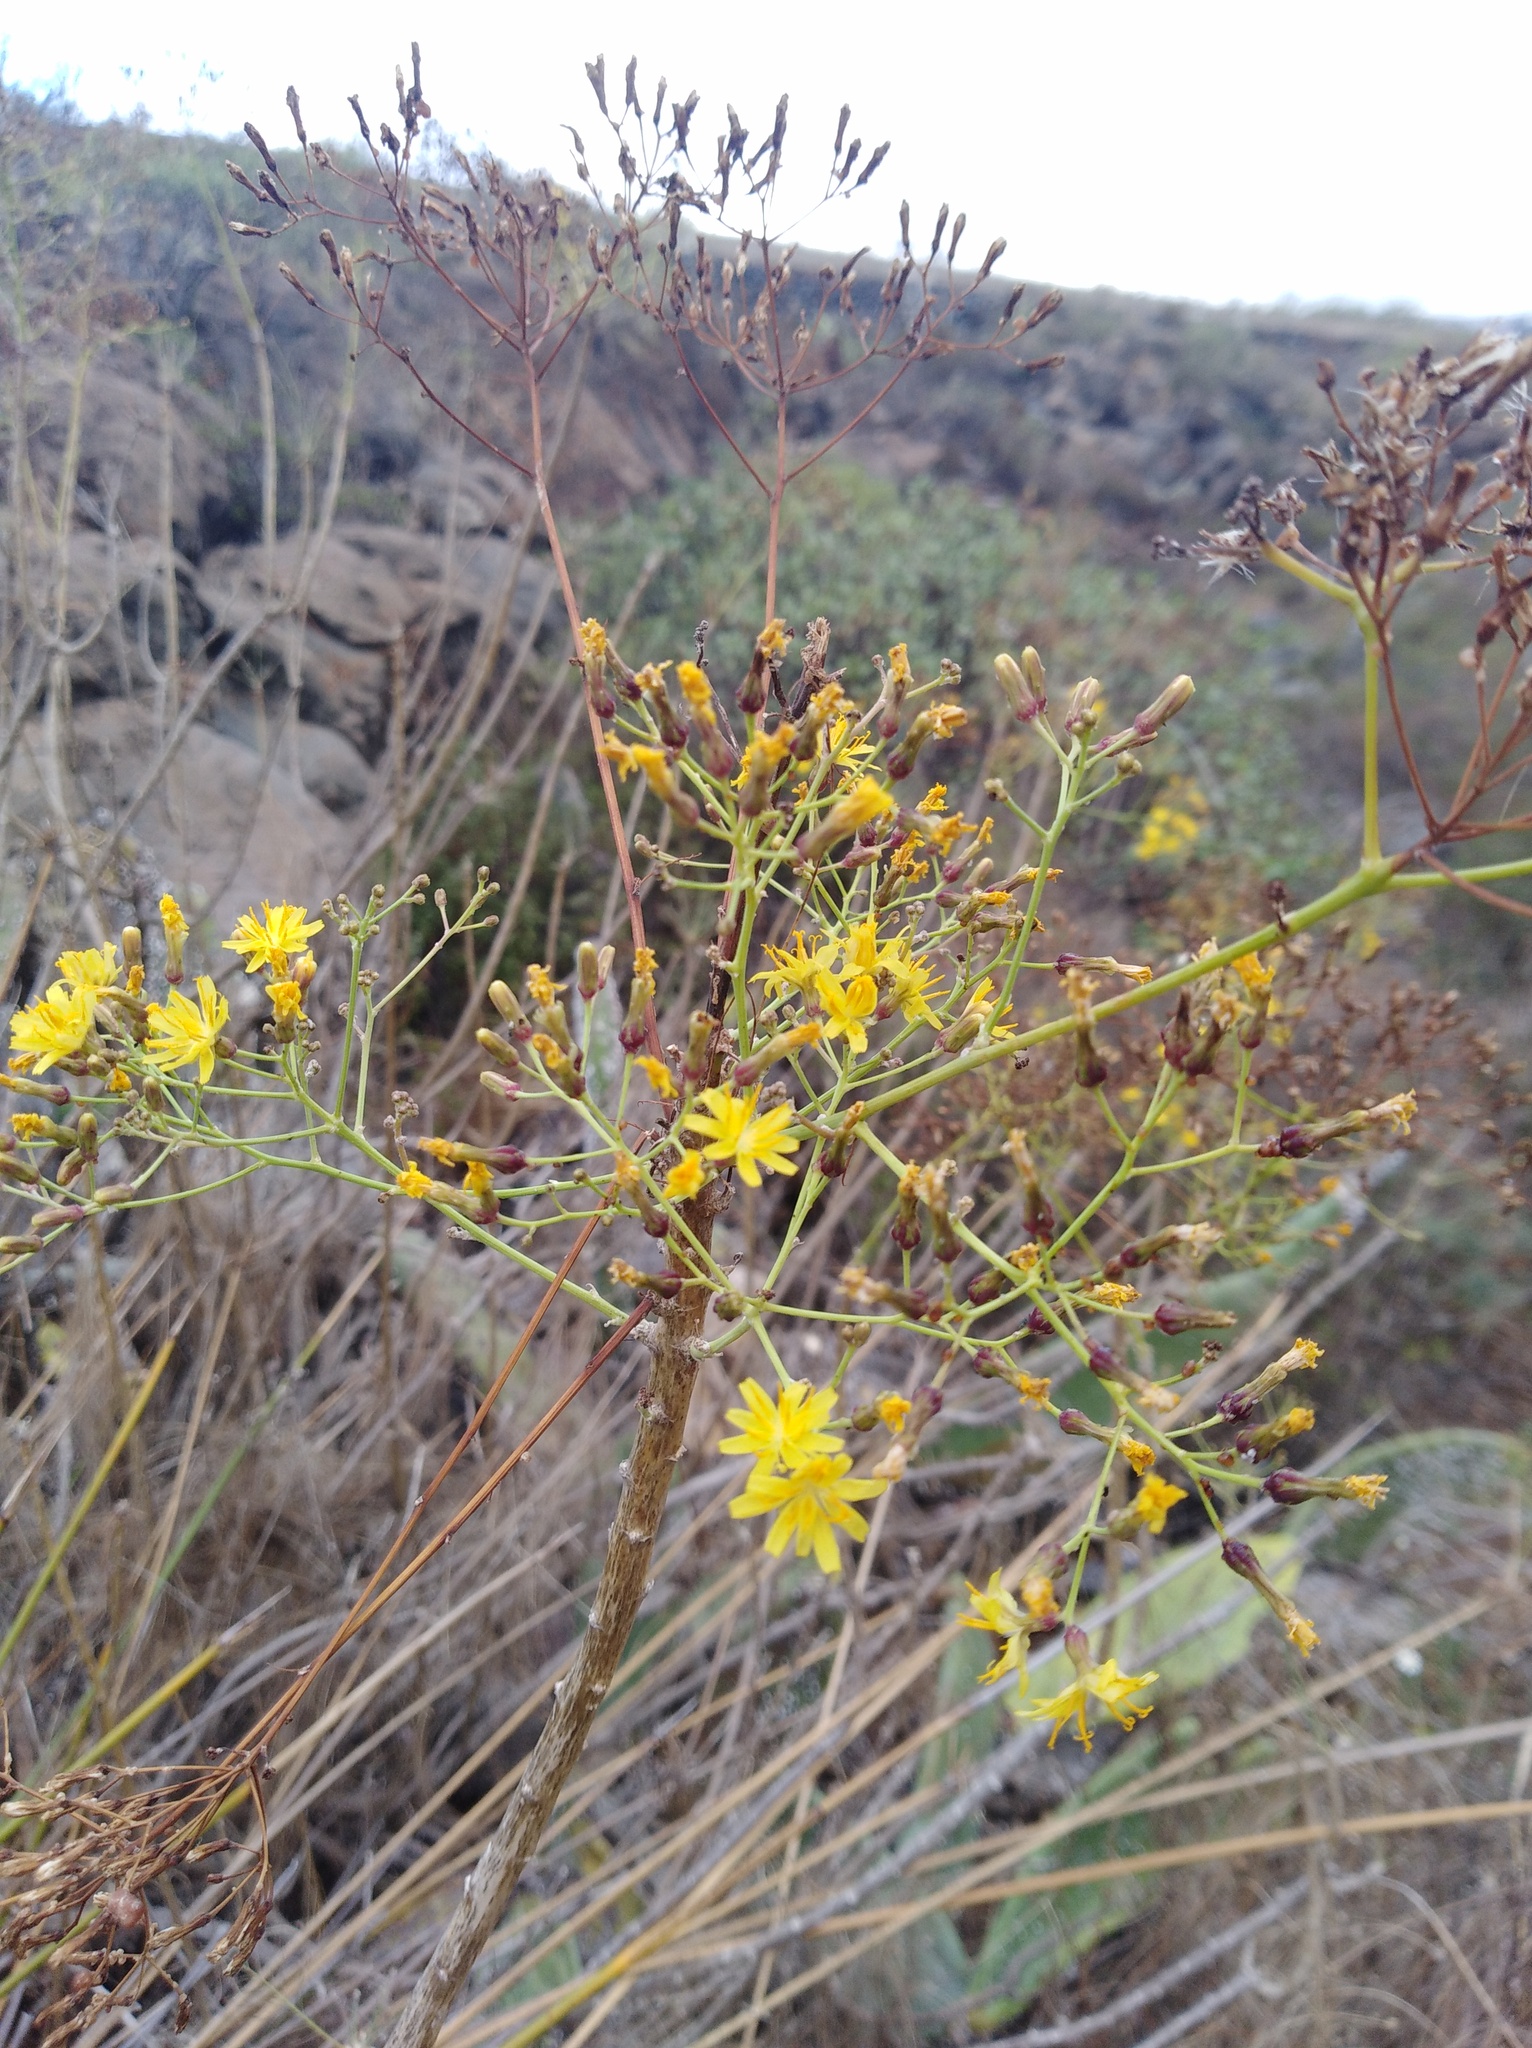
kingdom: Plantae
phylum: Tracheophyta
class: Magnoliopsida
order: Asterales
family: Asteraceae
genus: Sonchus
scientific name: Sonchus leptocephalus
